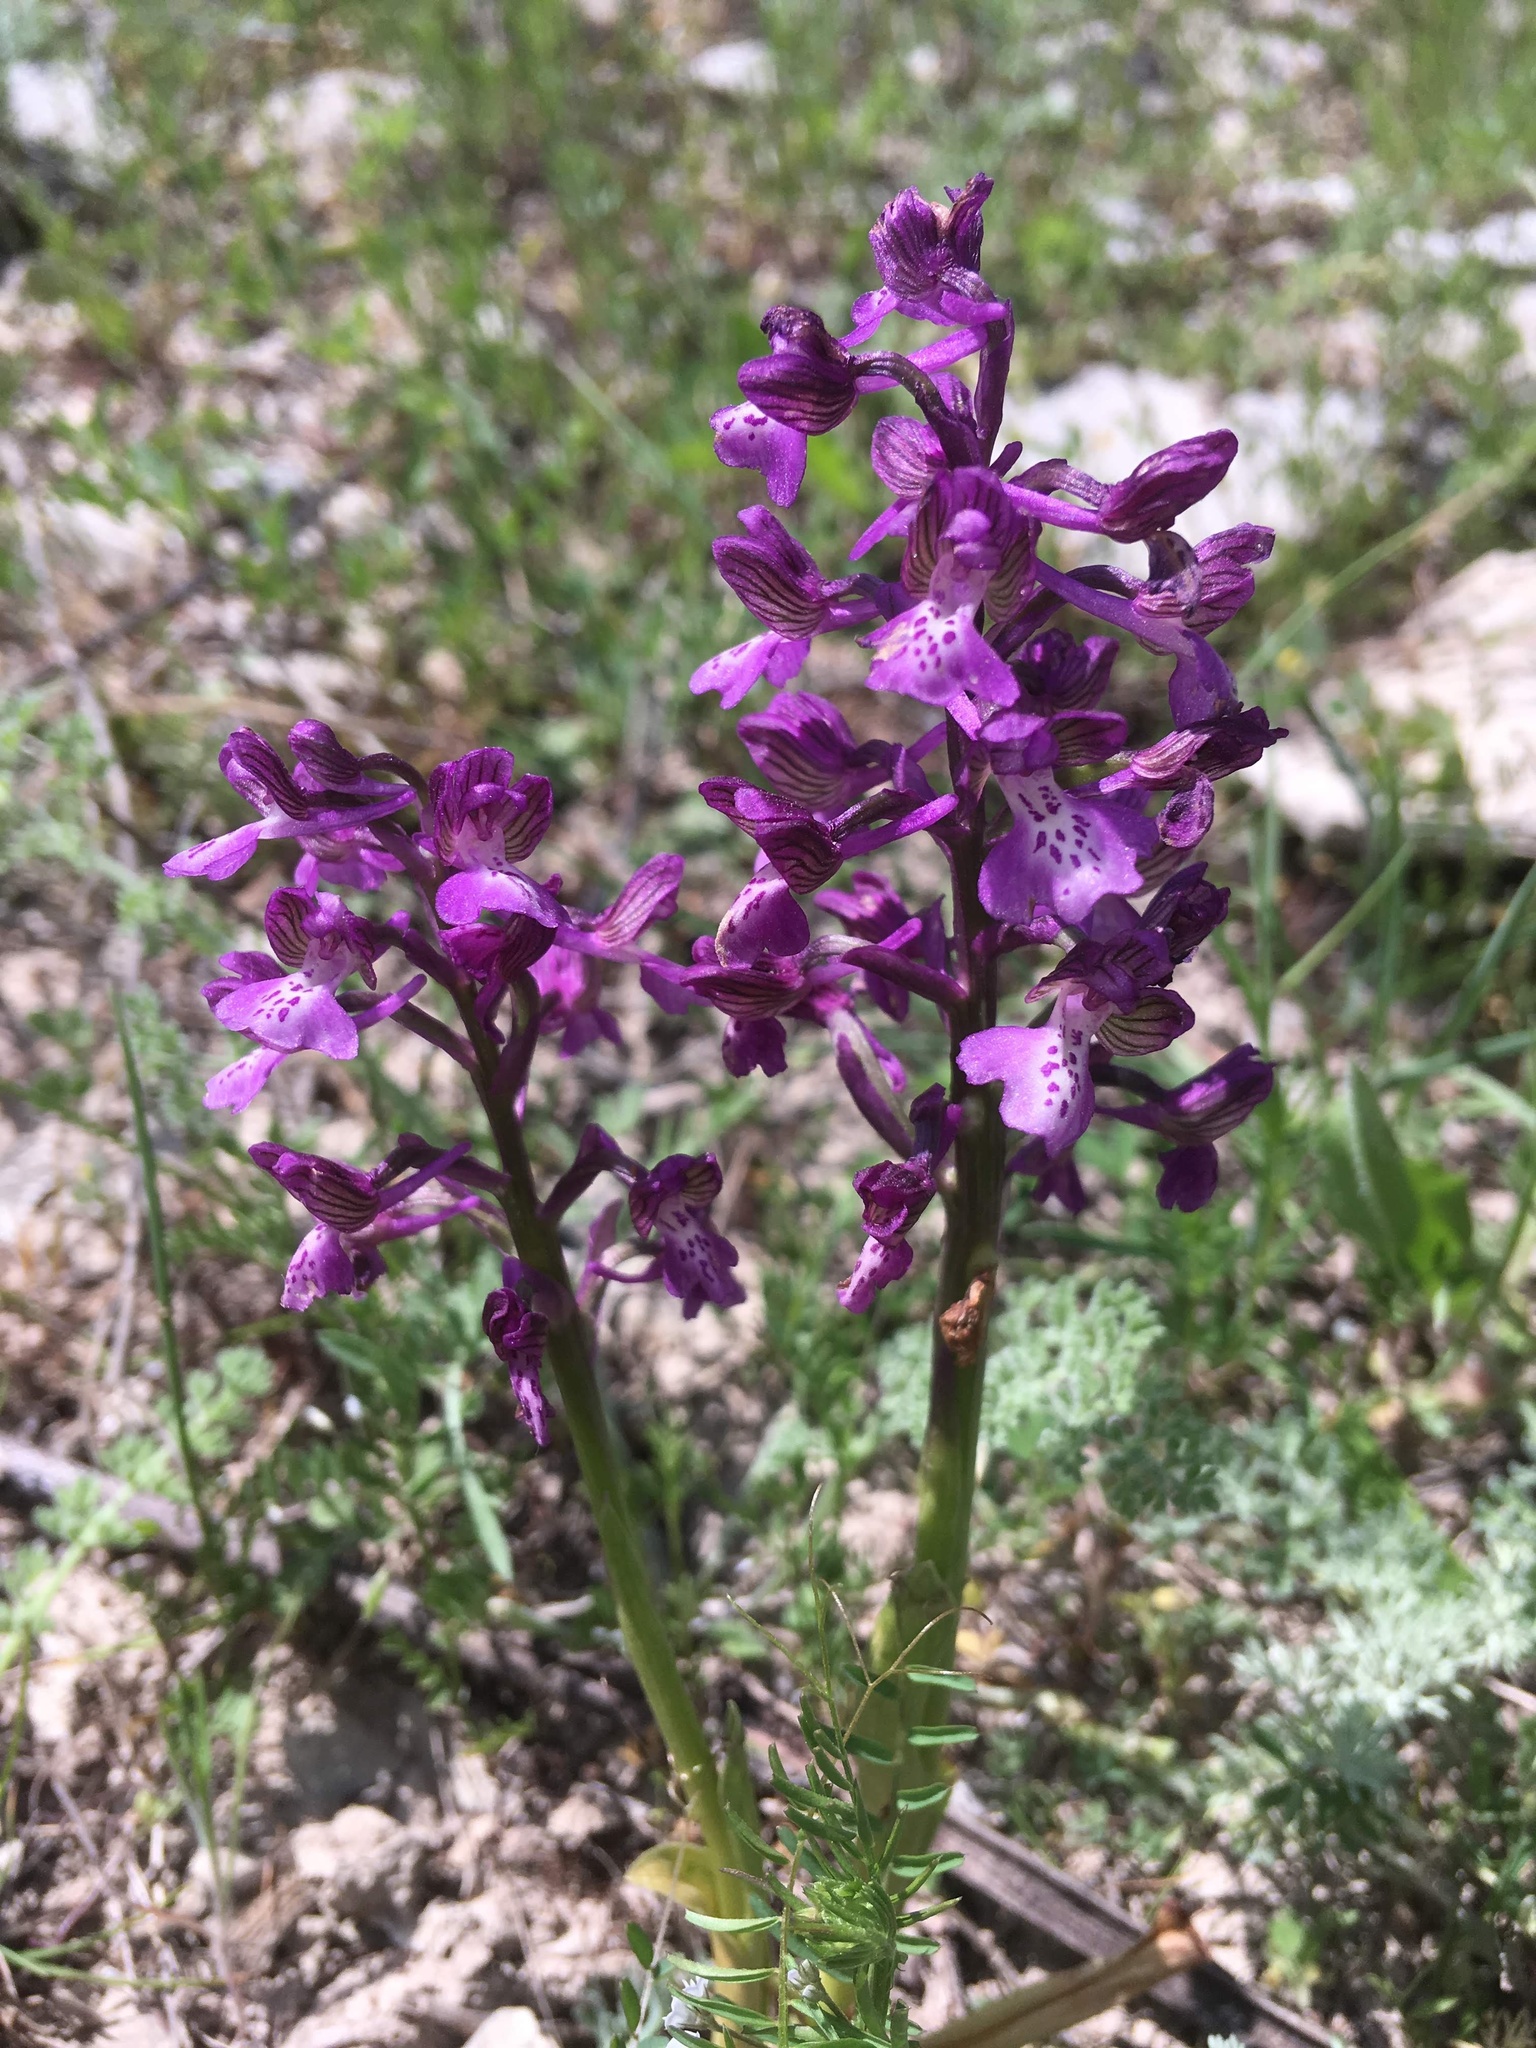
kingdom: Plantae
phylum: Tracheophyta
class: Liliopsida
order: Asparagales
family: Orchidaceae
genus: Anacamptis
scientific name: Anacamptis morio
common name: Green-winged orchid
